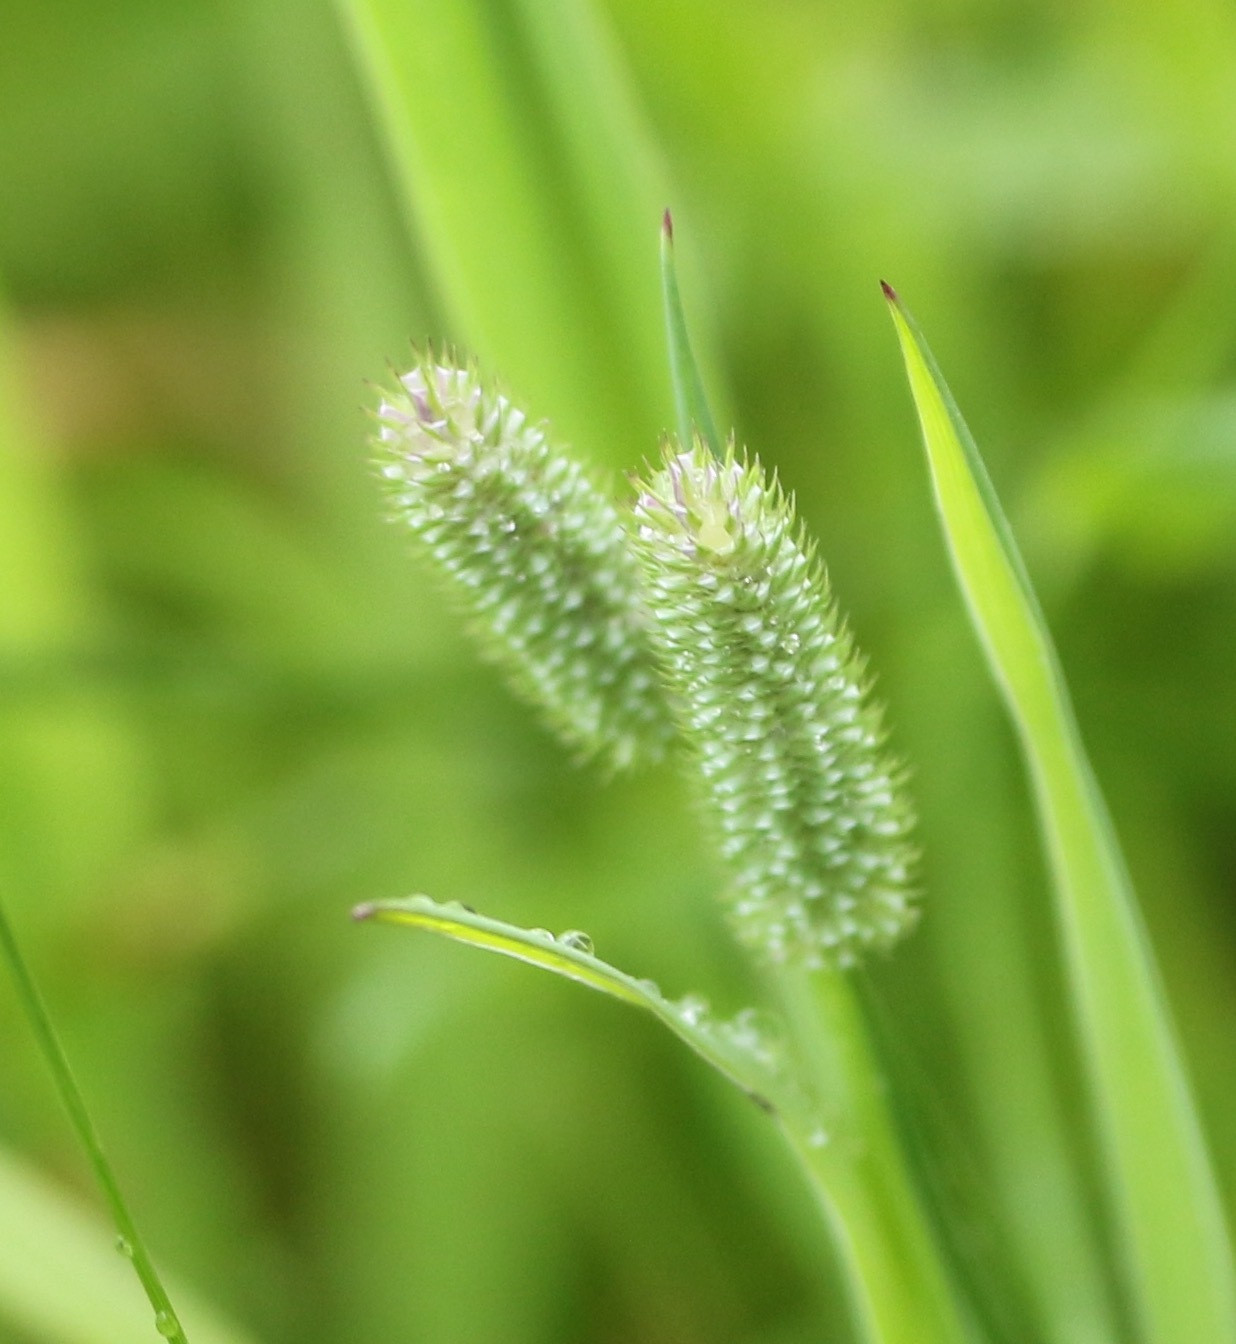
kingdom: Plantae
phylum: Tracheophyta
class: Liliopsida
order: Poales
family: Poaceae
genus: Phleum
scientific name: Phleum bertolonii
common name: Smaller cat's-tail
